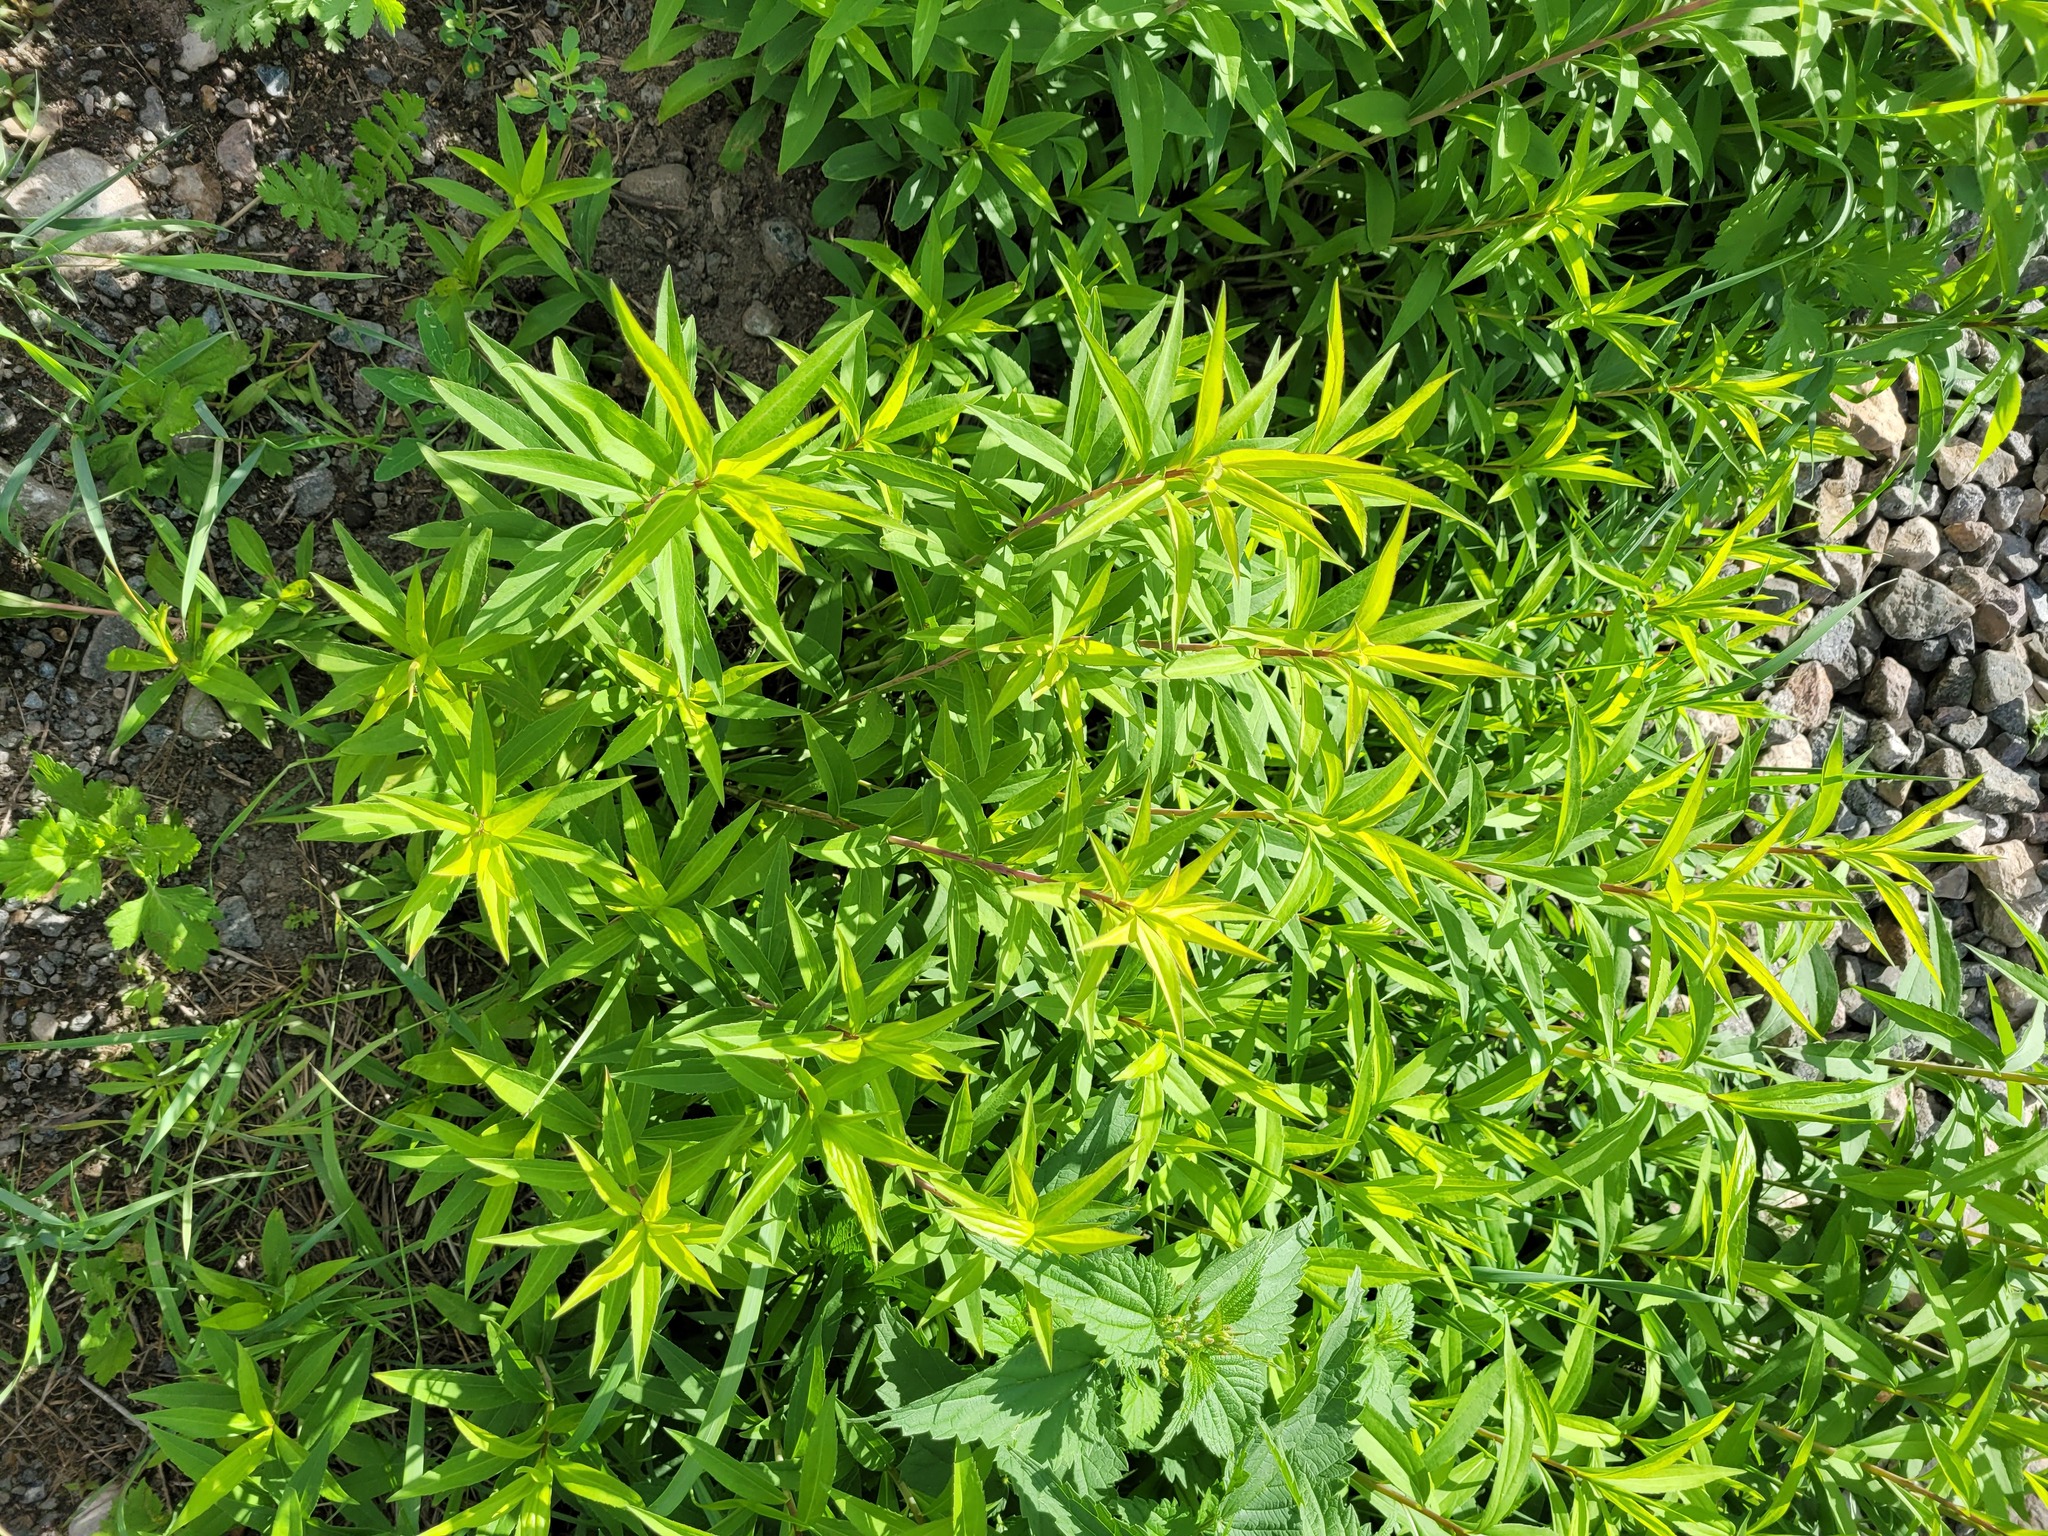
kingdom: Plantae
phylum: Tracheophyta
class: Magnoliopsida
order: Asterales
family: Asteraceae
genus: Solidago
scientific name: Solidago gigantea
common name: Giant goldenrod
